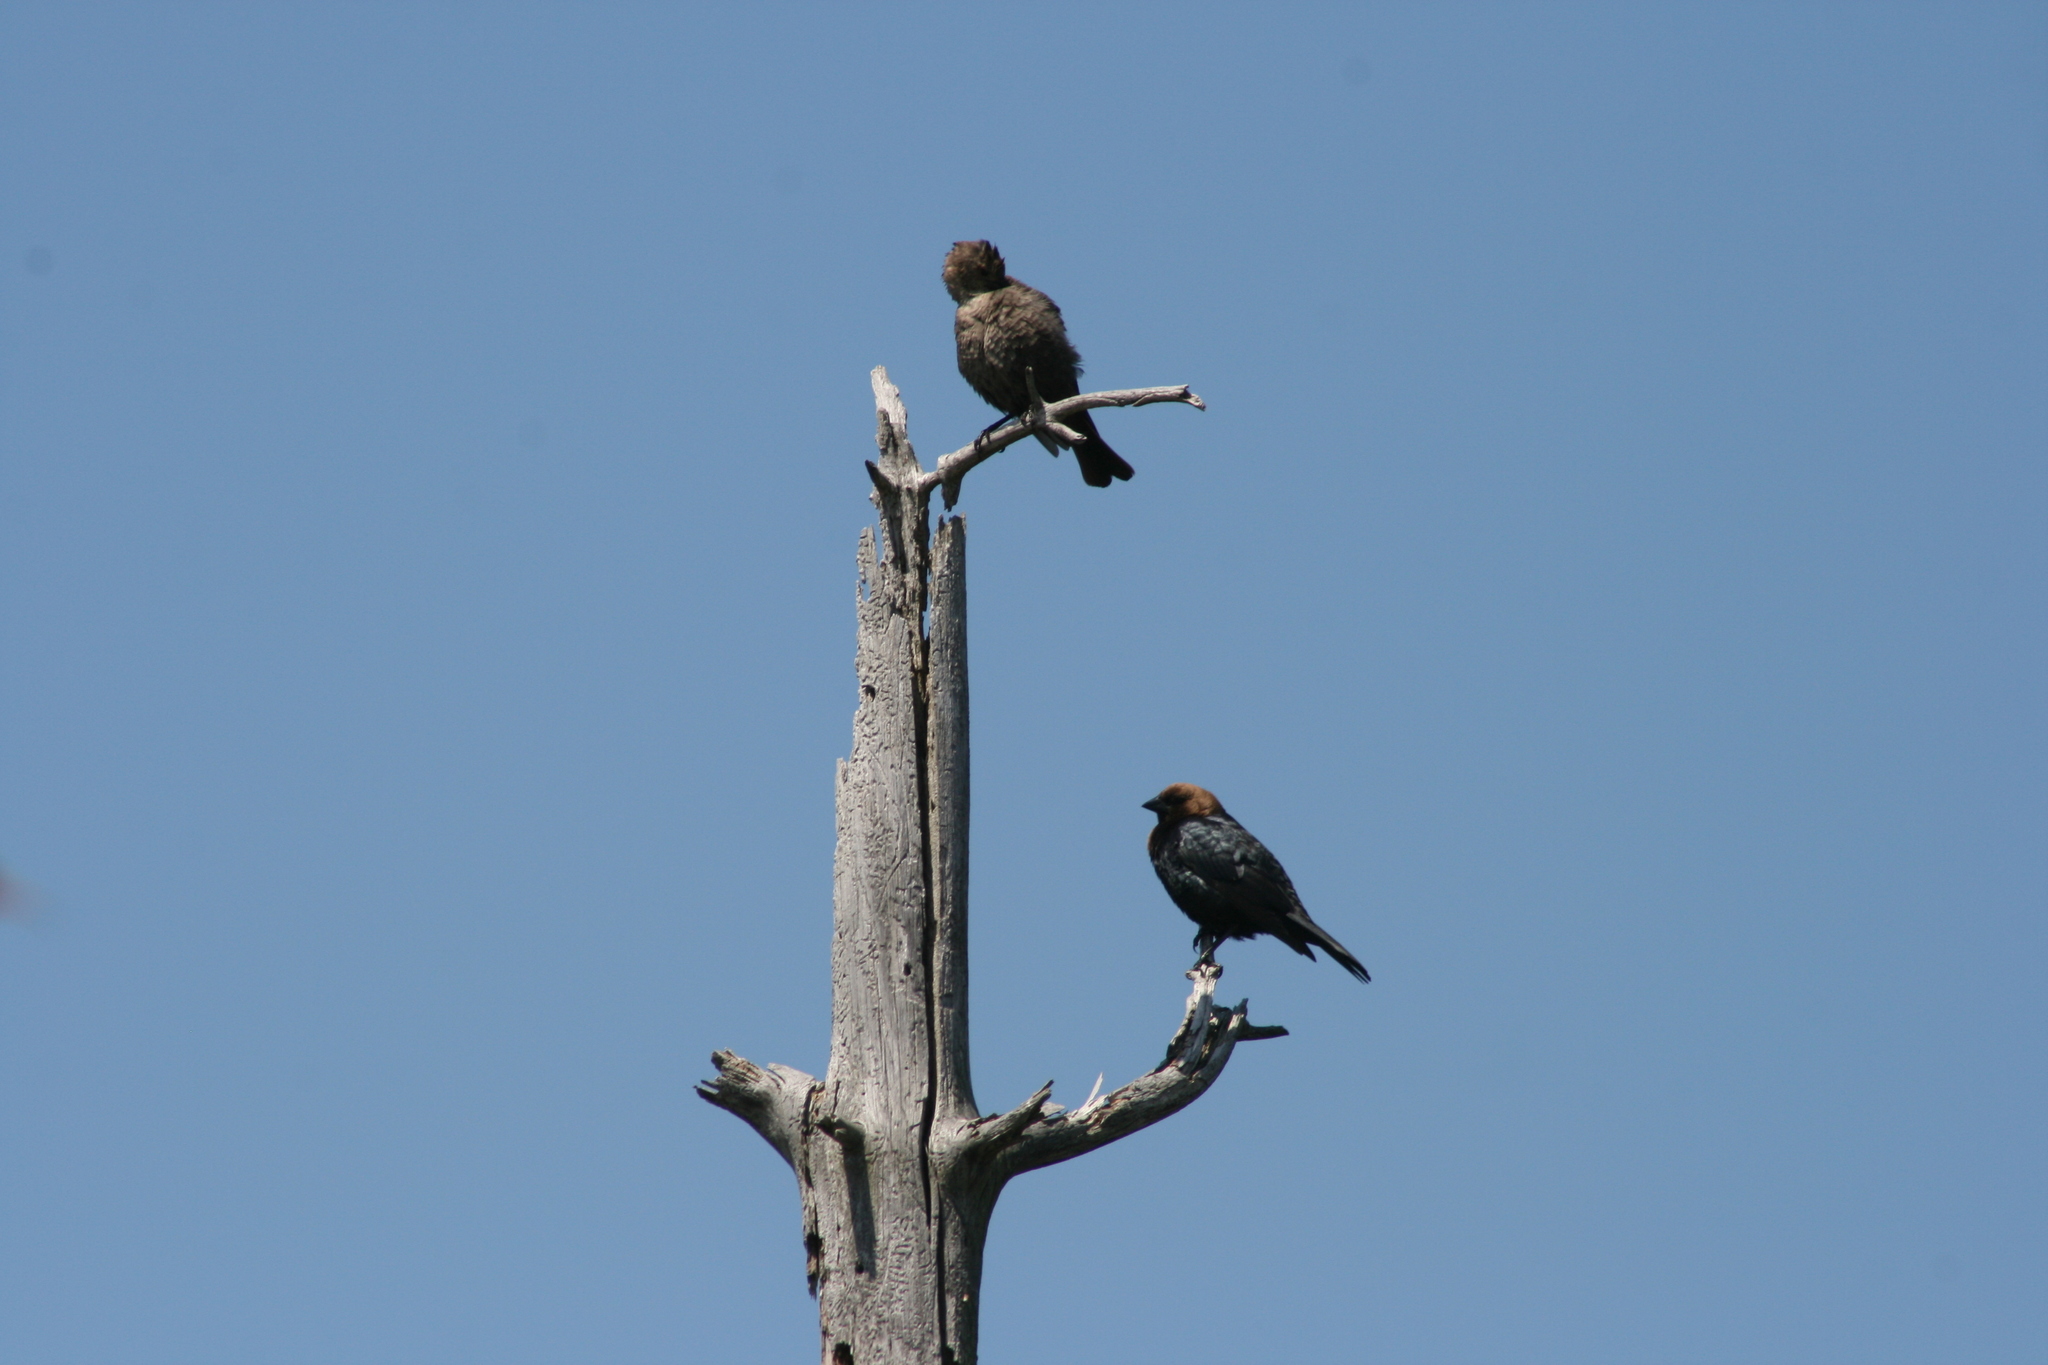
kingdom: Animalia
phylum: Chordata
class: Aves
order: Passeriformes
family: Icteridae
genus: Molothrus
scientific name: Molothrus ater
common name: Brown-headed cowbird
